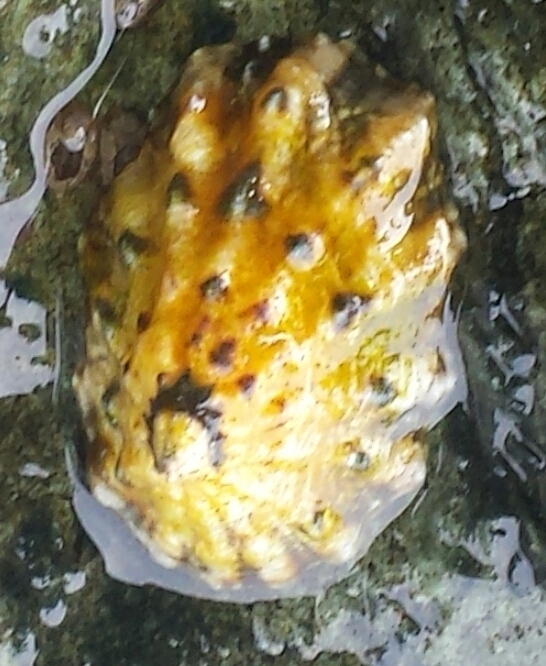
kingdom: Animalia
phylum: Mollusca
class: Gastropoda
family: Lottiidae
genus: Lottia
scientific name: Lottia scabra
